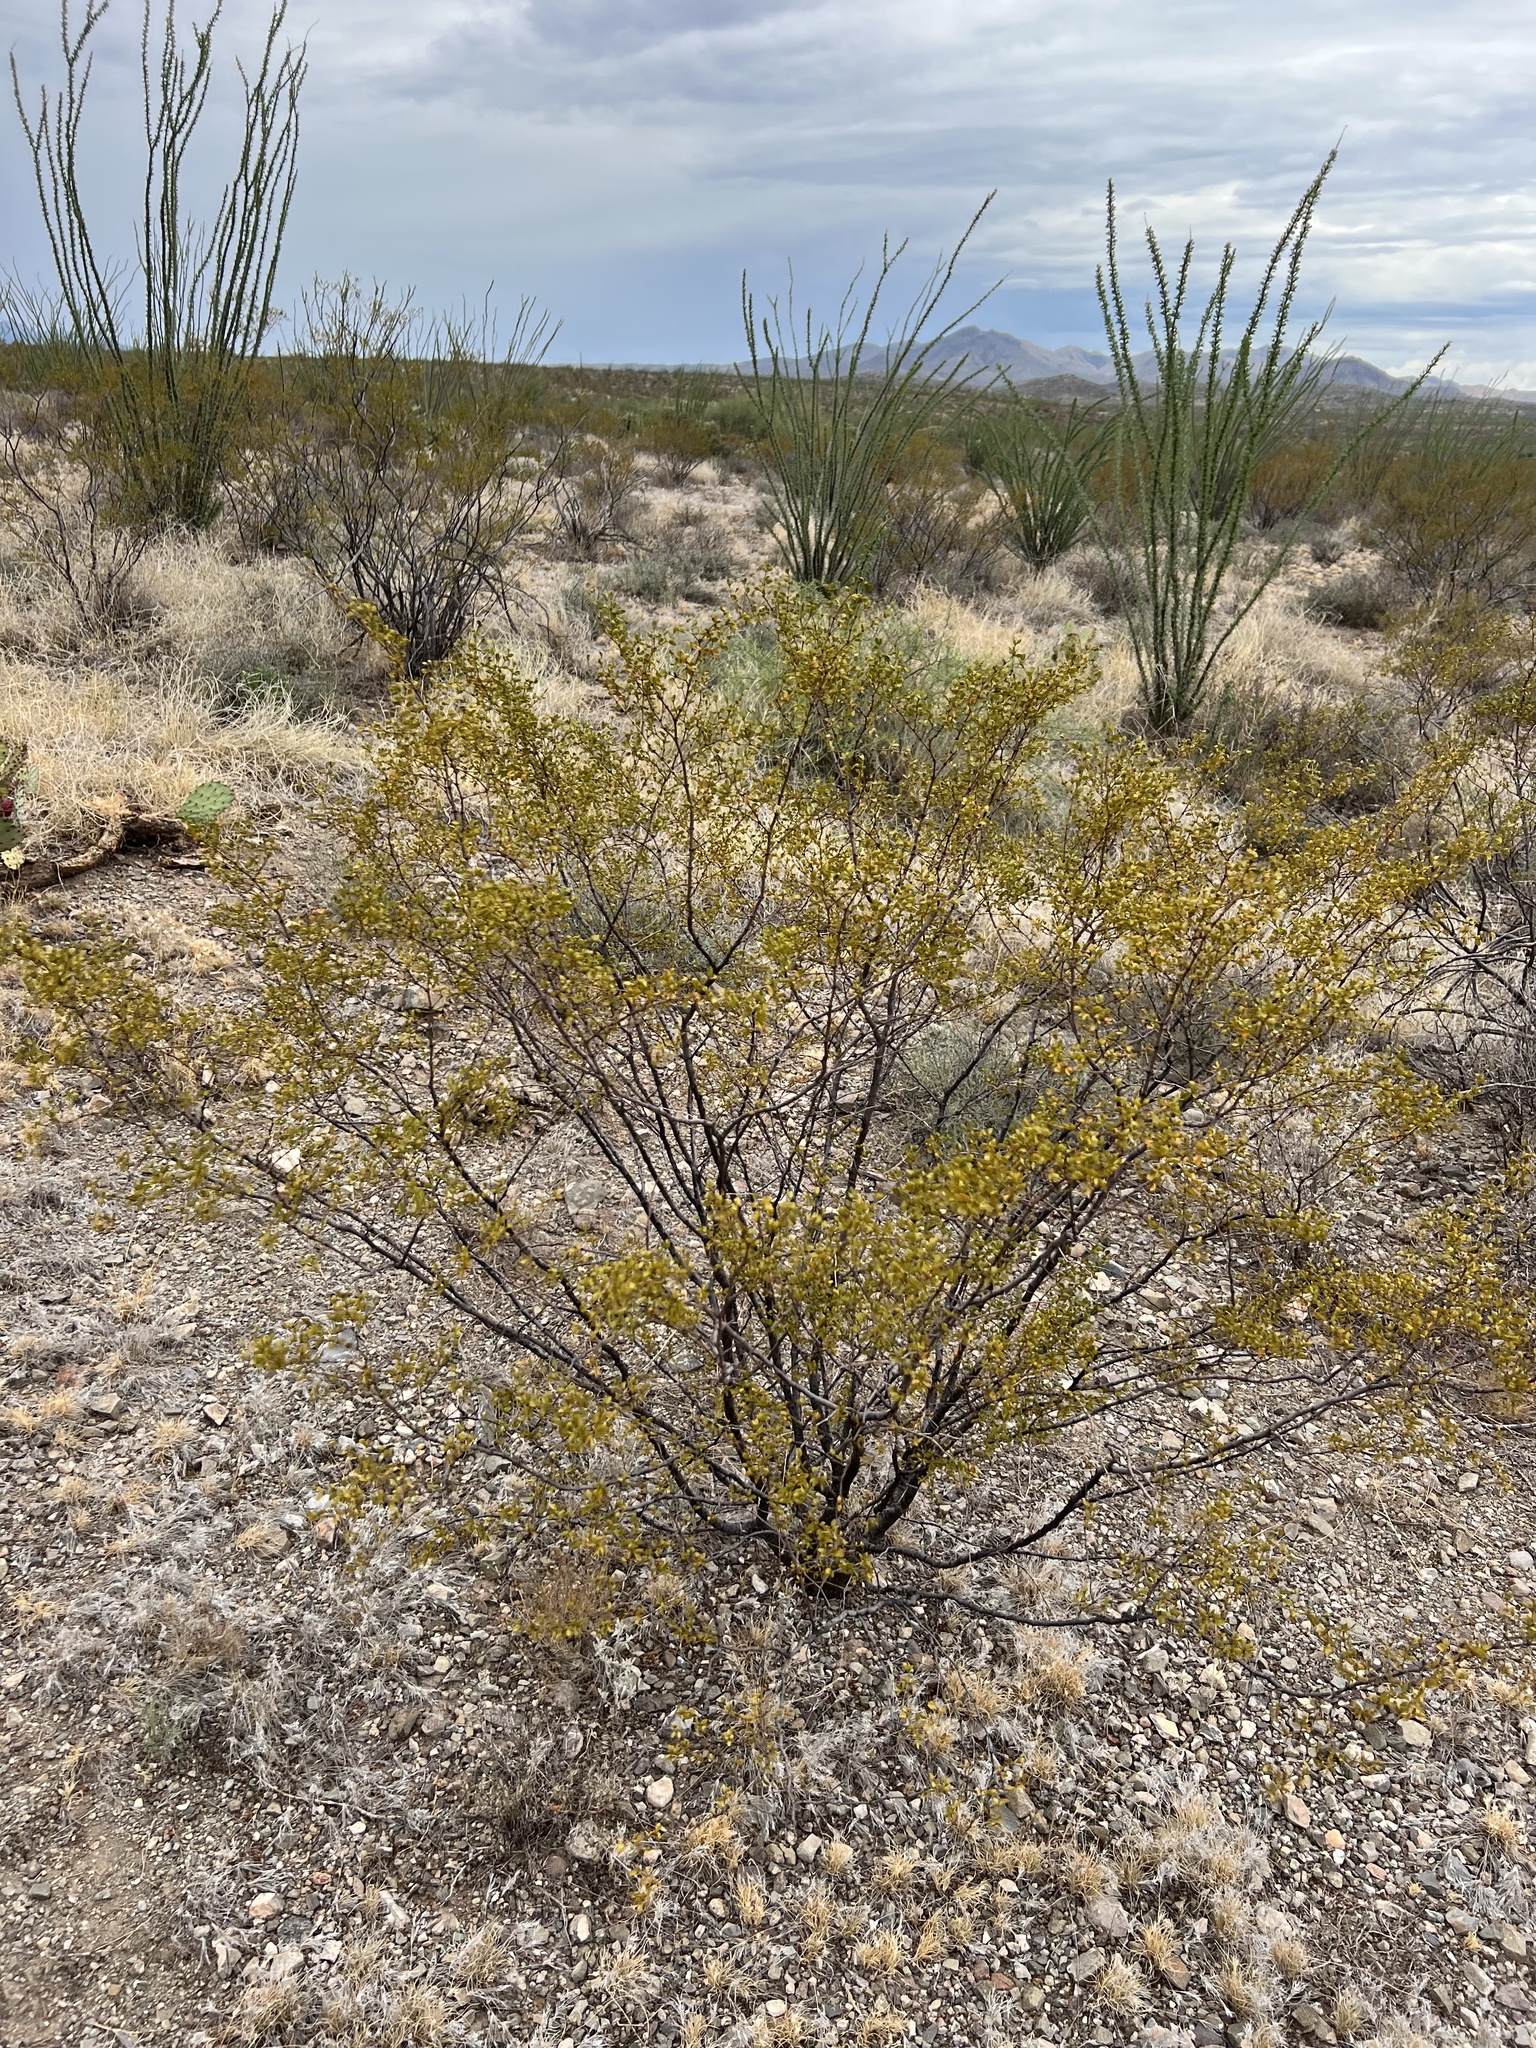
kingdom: Plantae
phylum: Tracheophyta
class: Magnoliopsida
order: Zygophyllales
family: Zygophyllaceae
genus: Larrea
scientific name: Larrea tridentata
